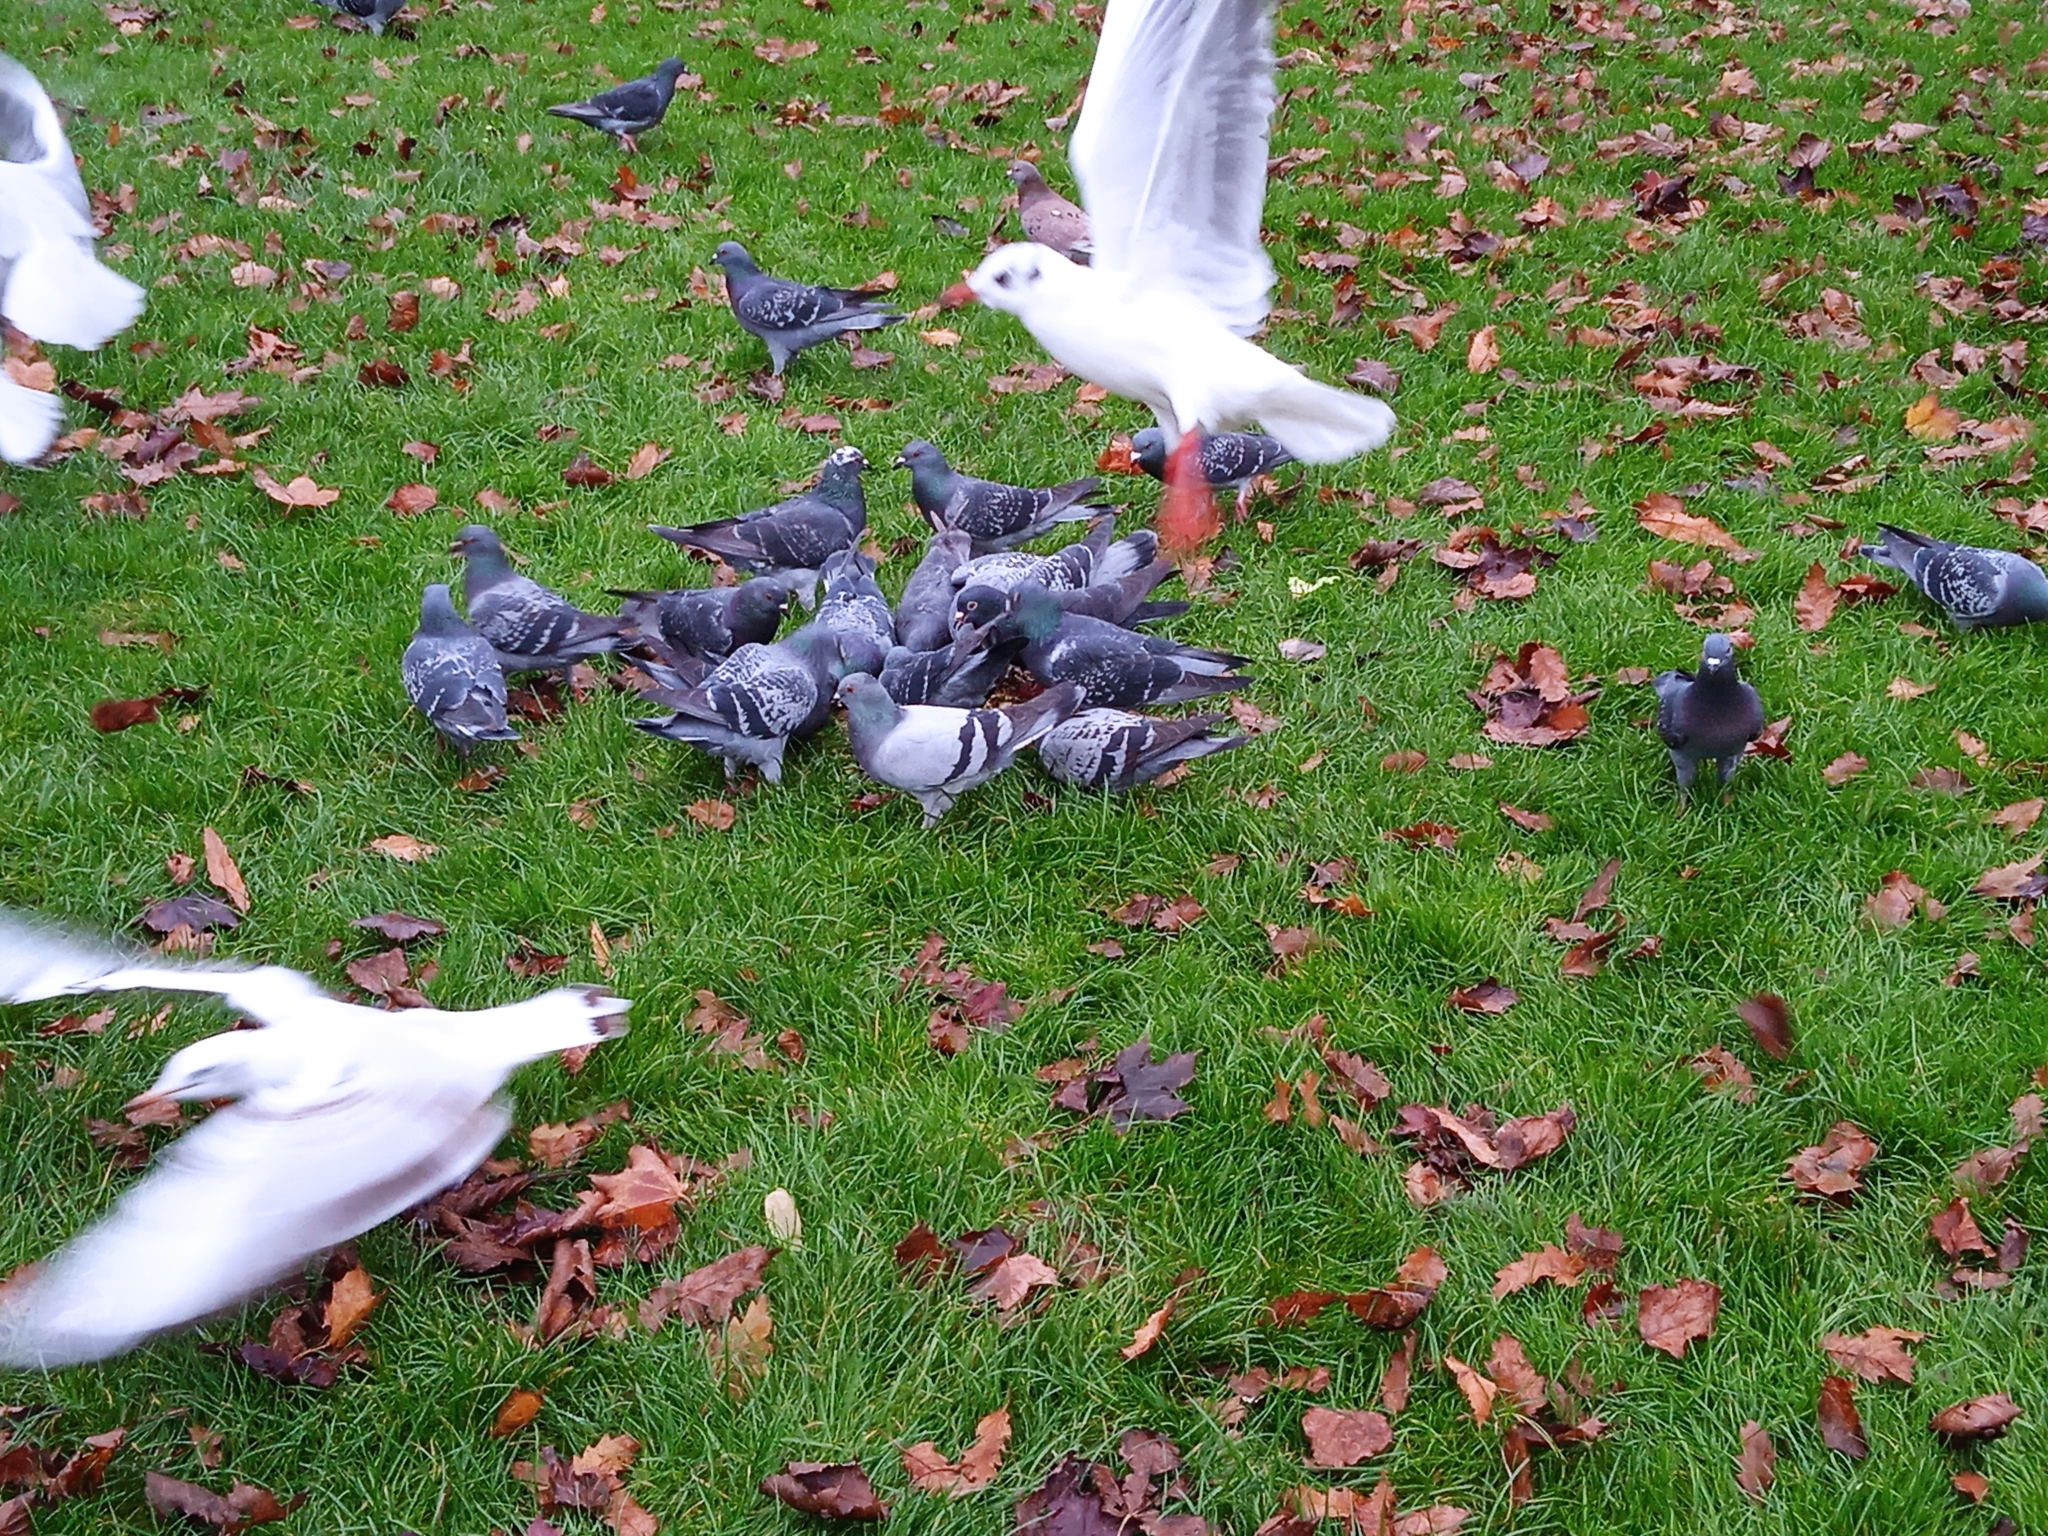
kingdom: Animalia
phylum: Chordata
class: Aves
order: Columbiformes
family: Columbidae
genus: Columba
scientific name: Columba livia
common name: Rock pigeon
